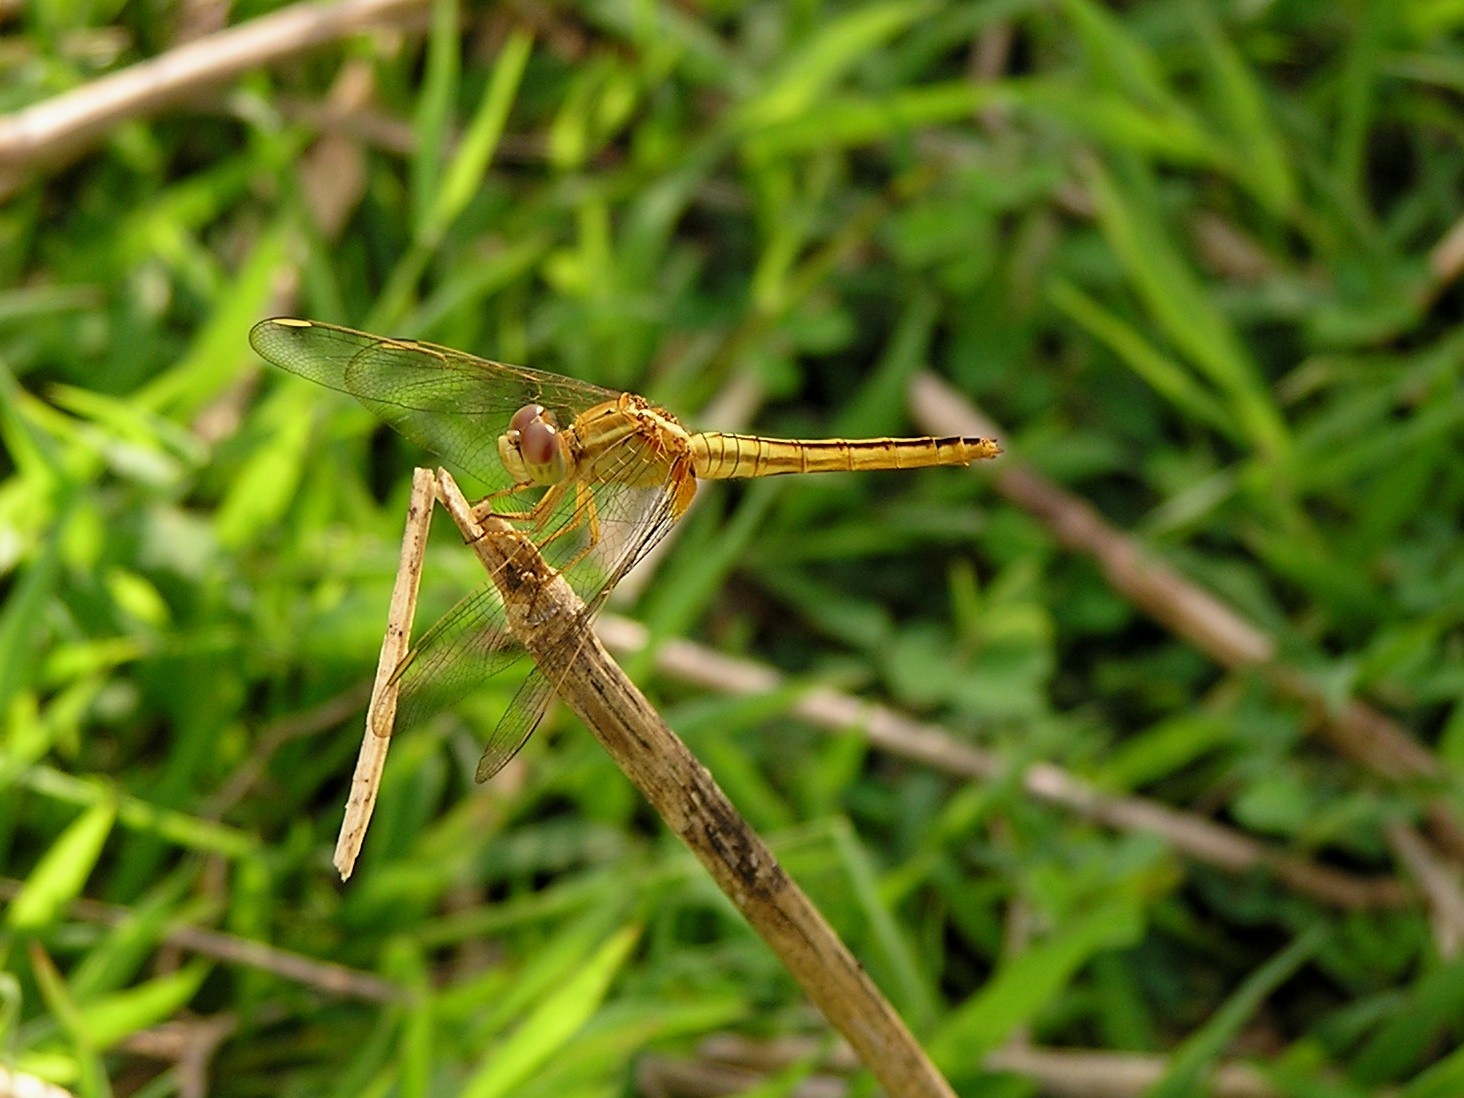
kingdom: Animalia
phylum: Arthropoda
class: Insecta
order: Odonata
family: Libellulidae
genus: Crocothemis
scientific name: Crocothemis servilia
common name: Scarlet skimmer
